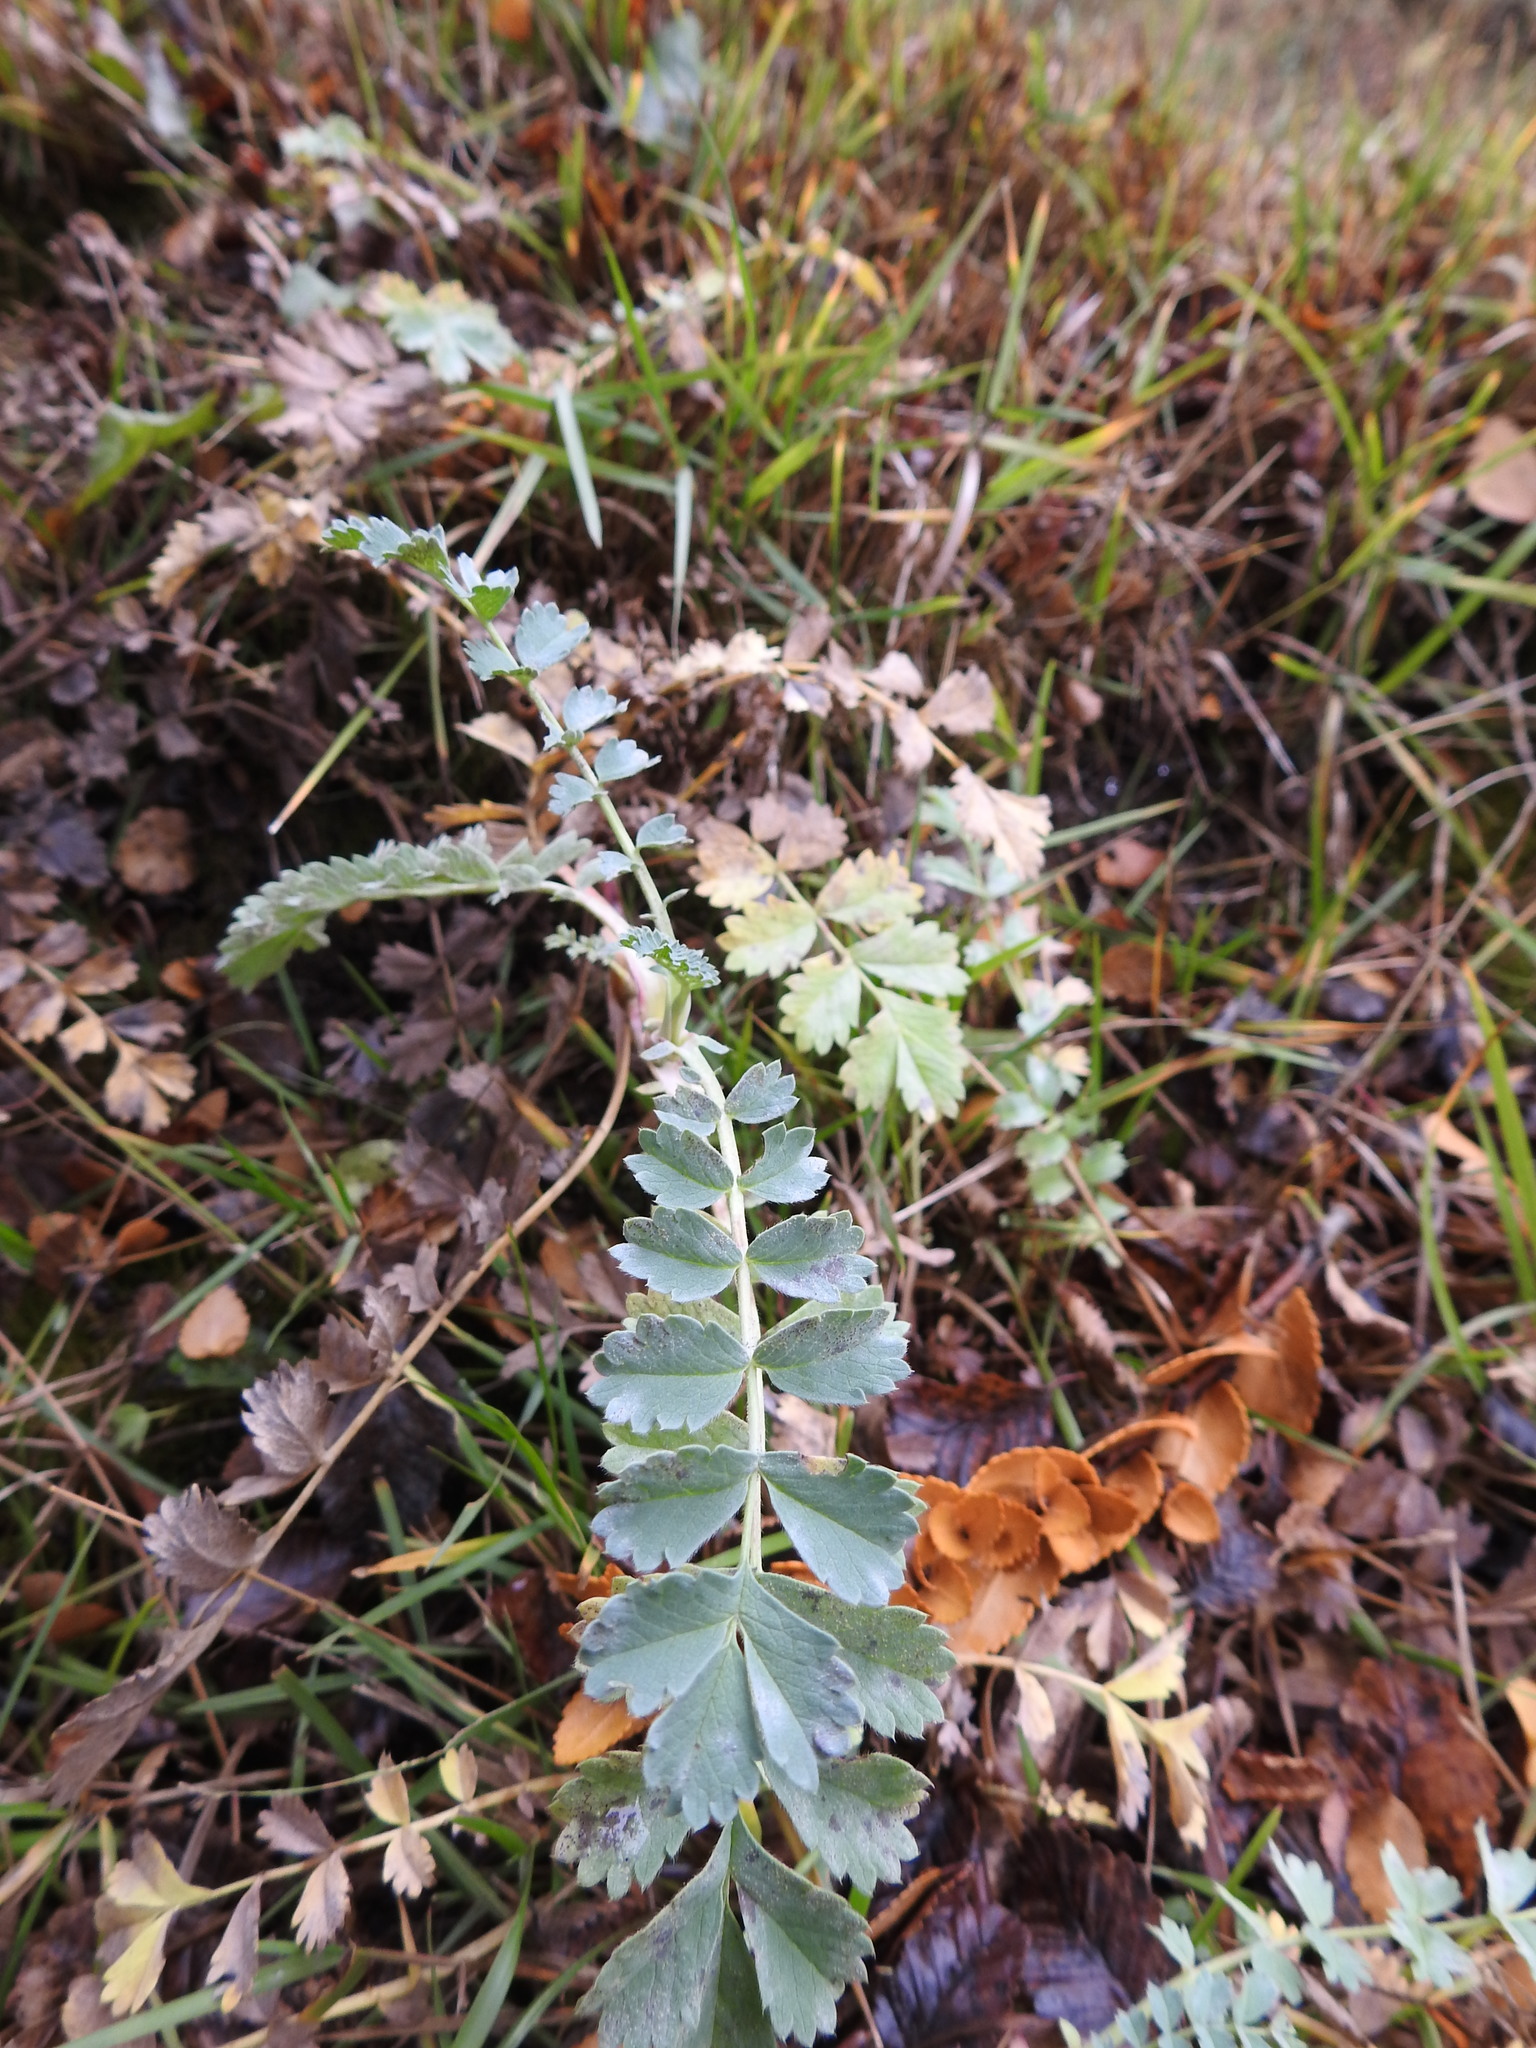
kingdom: Plantae
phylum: Tracheophyta
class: Magnoliopsida
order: Rosales
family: Rosaceae
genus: Acaena
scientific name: Acaena magellanica
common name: New zealand burr
